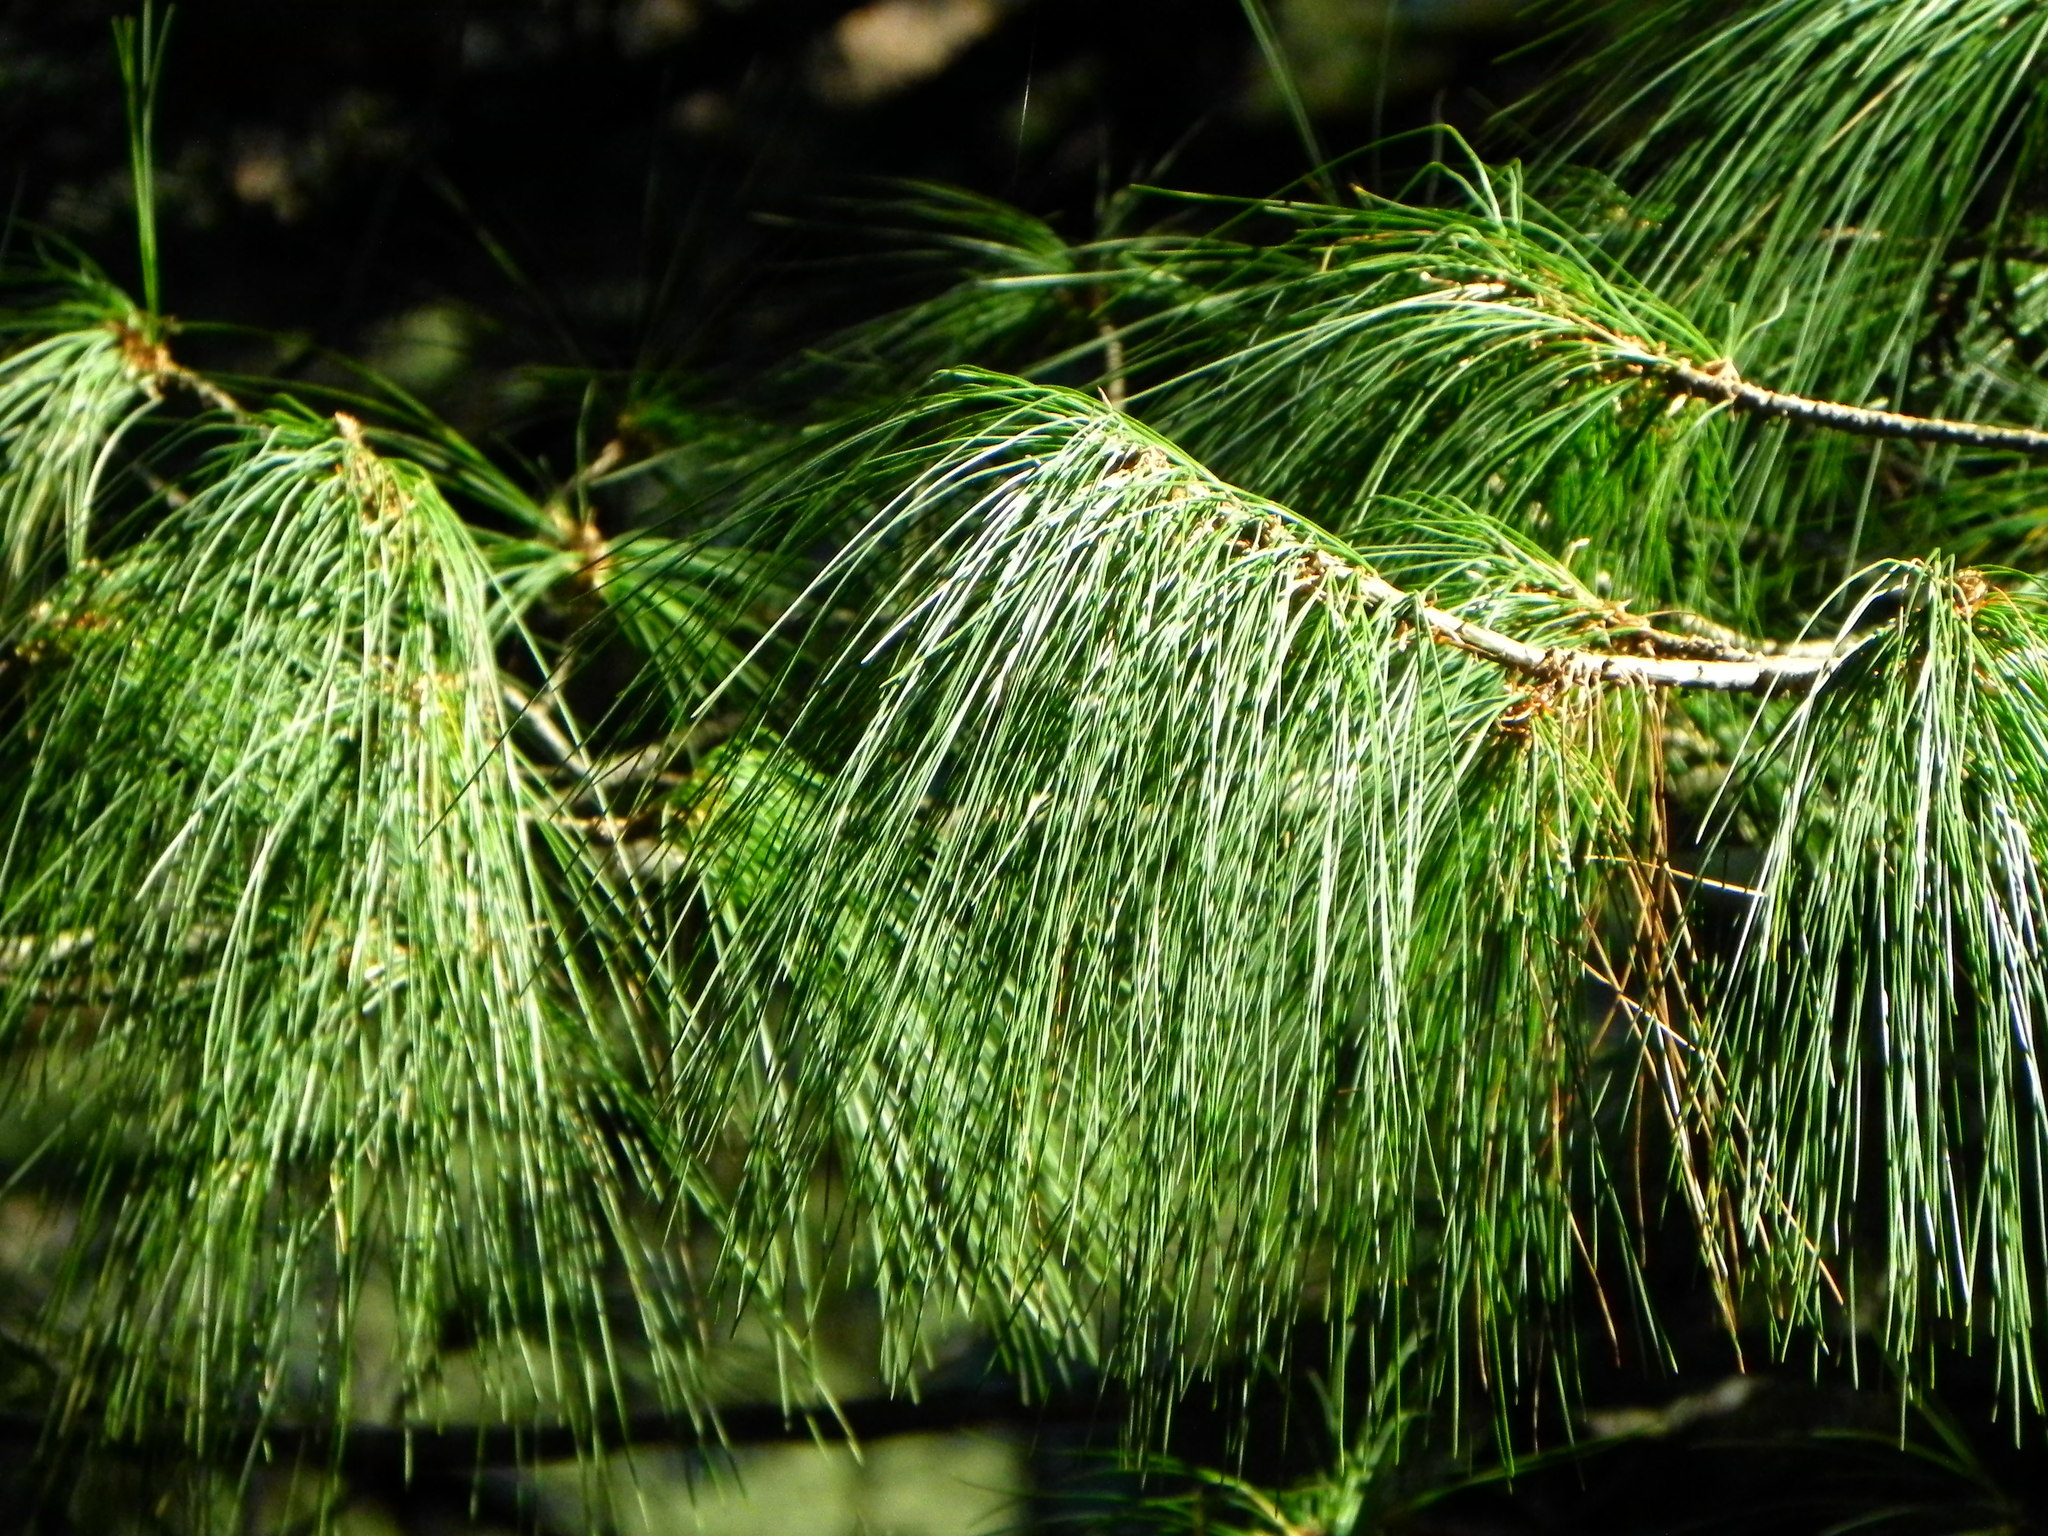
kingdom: Plantae
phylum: Tracheophyta
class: Pinopsida
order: Pinales
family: Pinaceae
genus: Pinus
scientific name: Pinus roxburghii
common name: Chir pine
